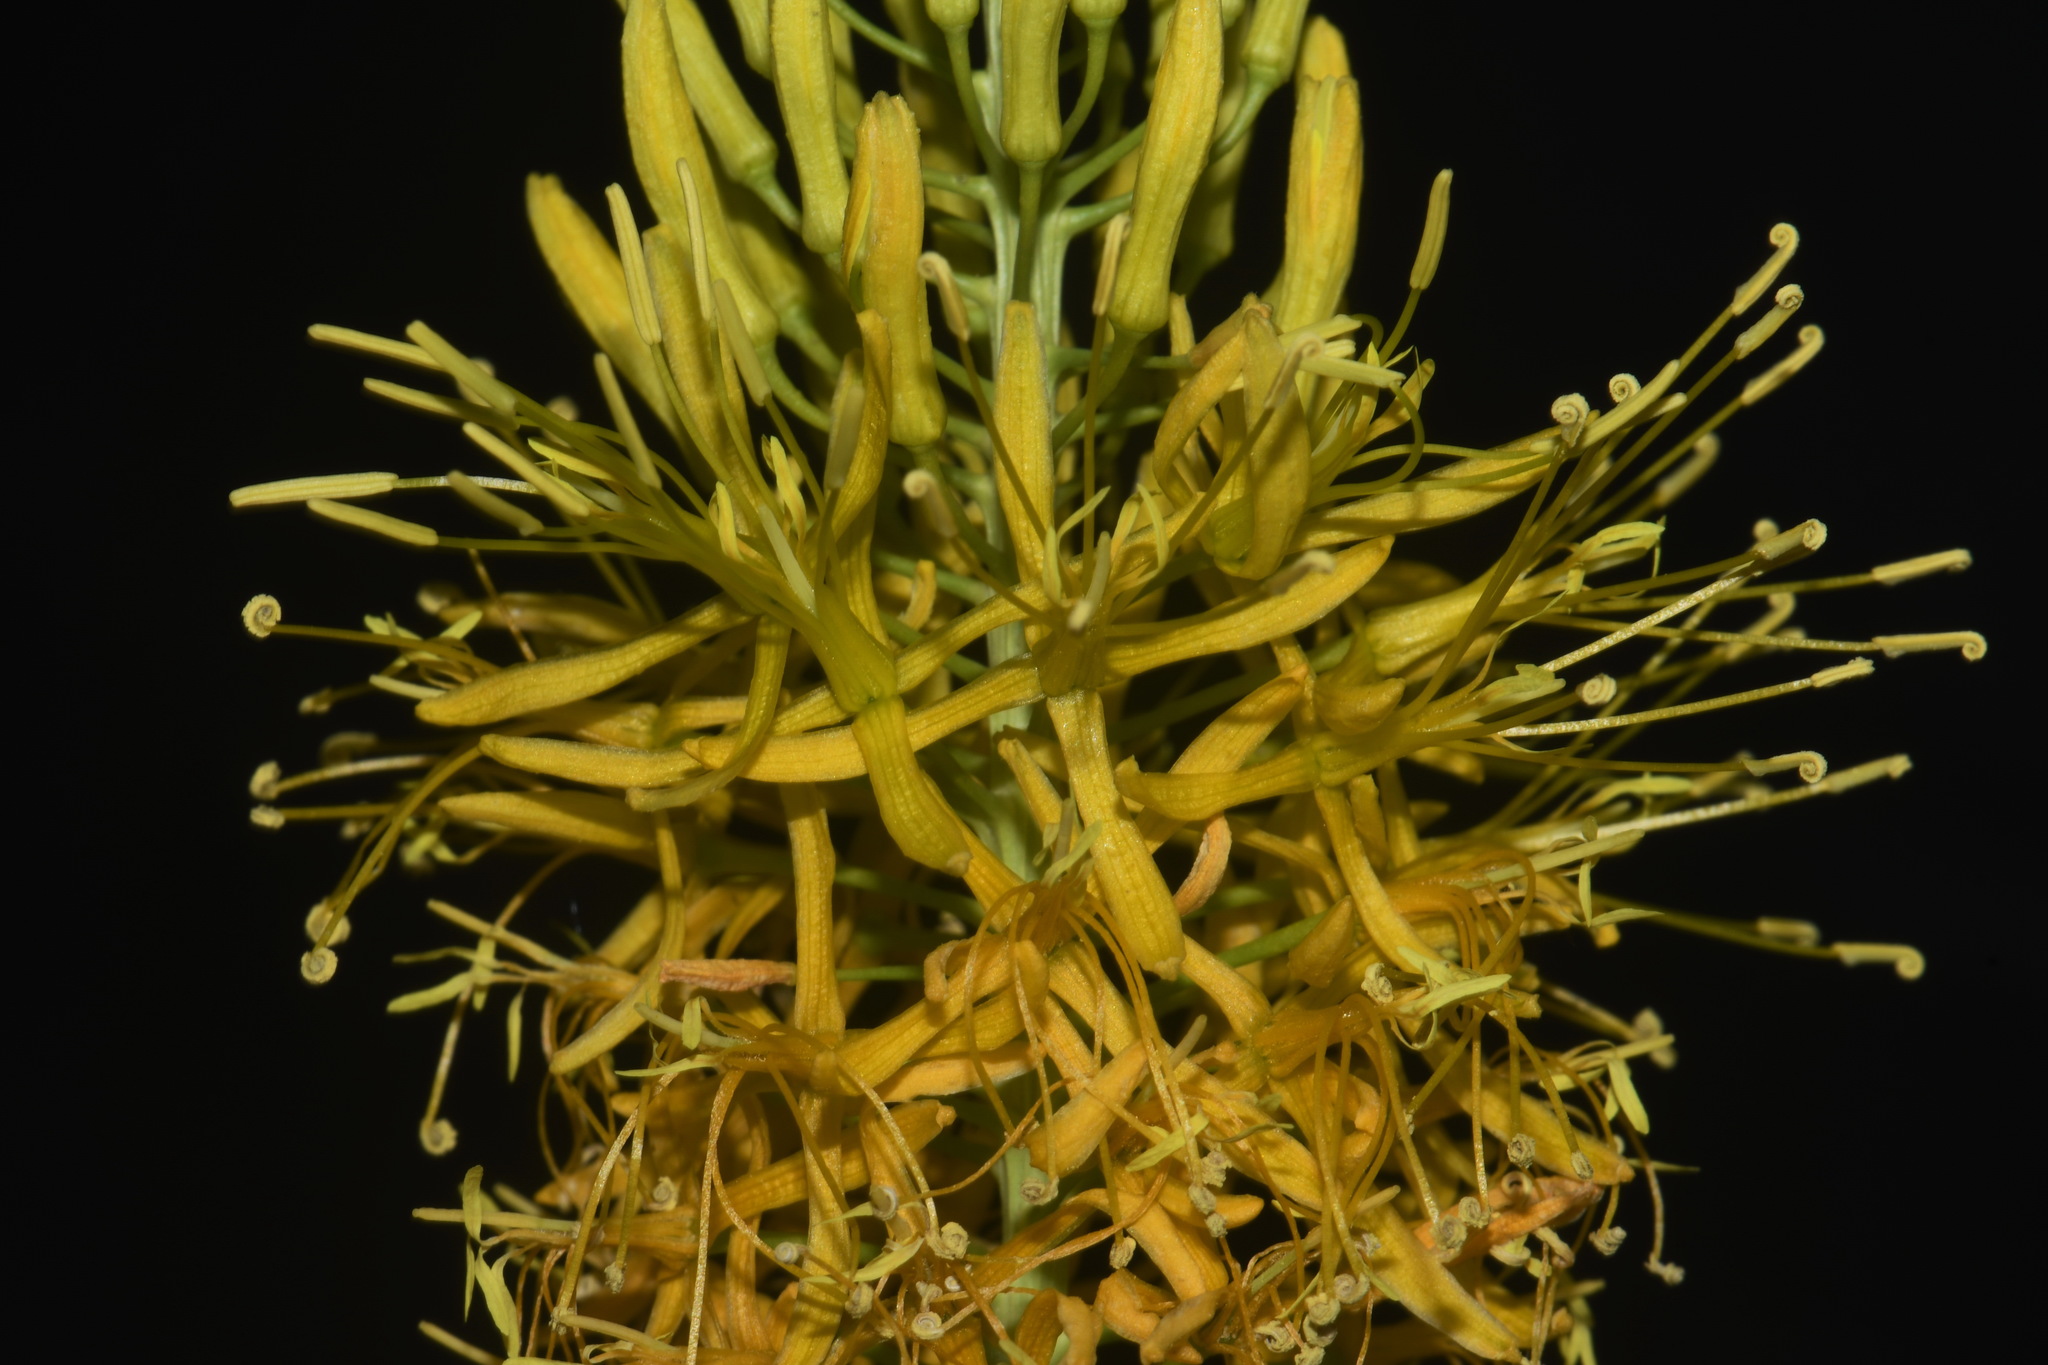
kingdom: Plantae
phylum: Tracheophyta
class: Magnoliopsida
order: Brassicales
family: Brassicaceae
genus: Stanleya
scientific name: Stanleya pinnata
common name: Prince's-plume
